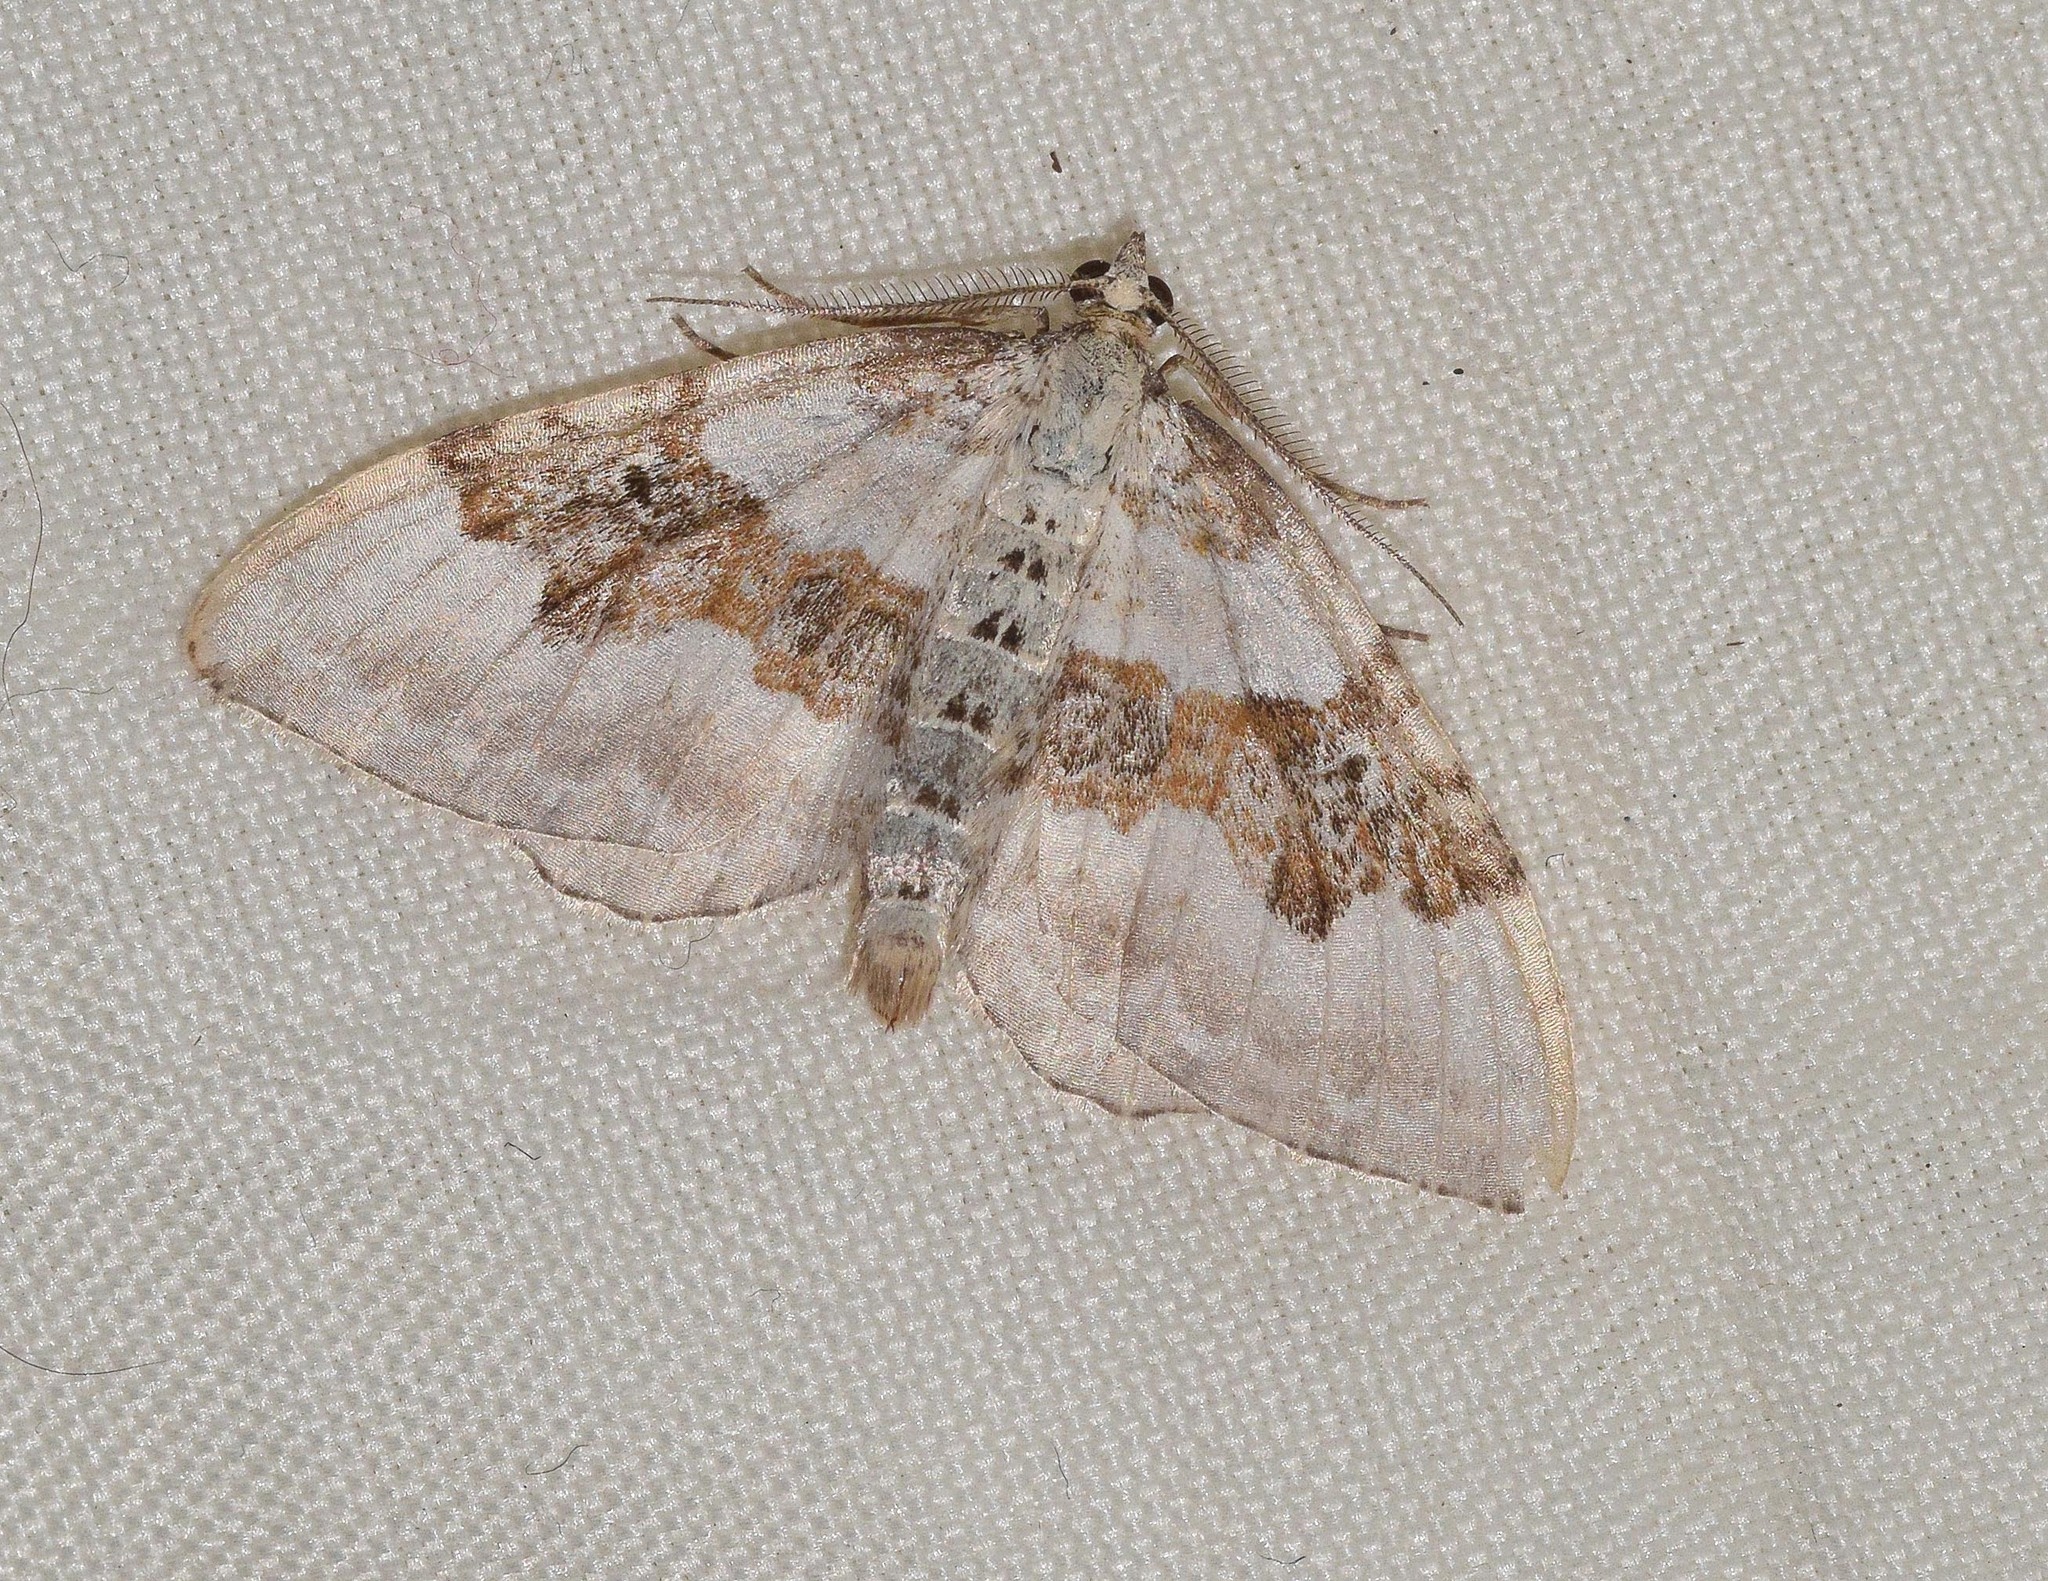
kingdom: Animalia
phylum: Arthropoda
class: Insecta
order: Lepidoptera
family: Geometridae
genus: Xanthorhoe
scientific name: Xanthorhoe montanata
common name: Silver-ground carpet
